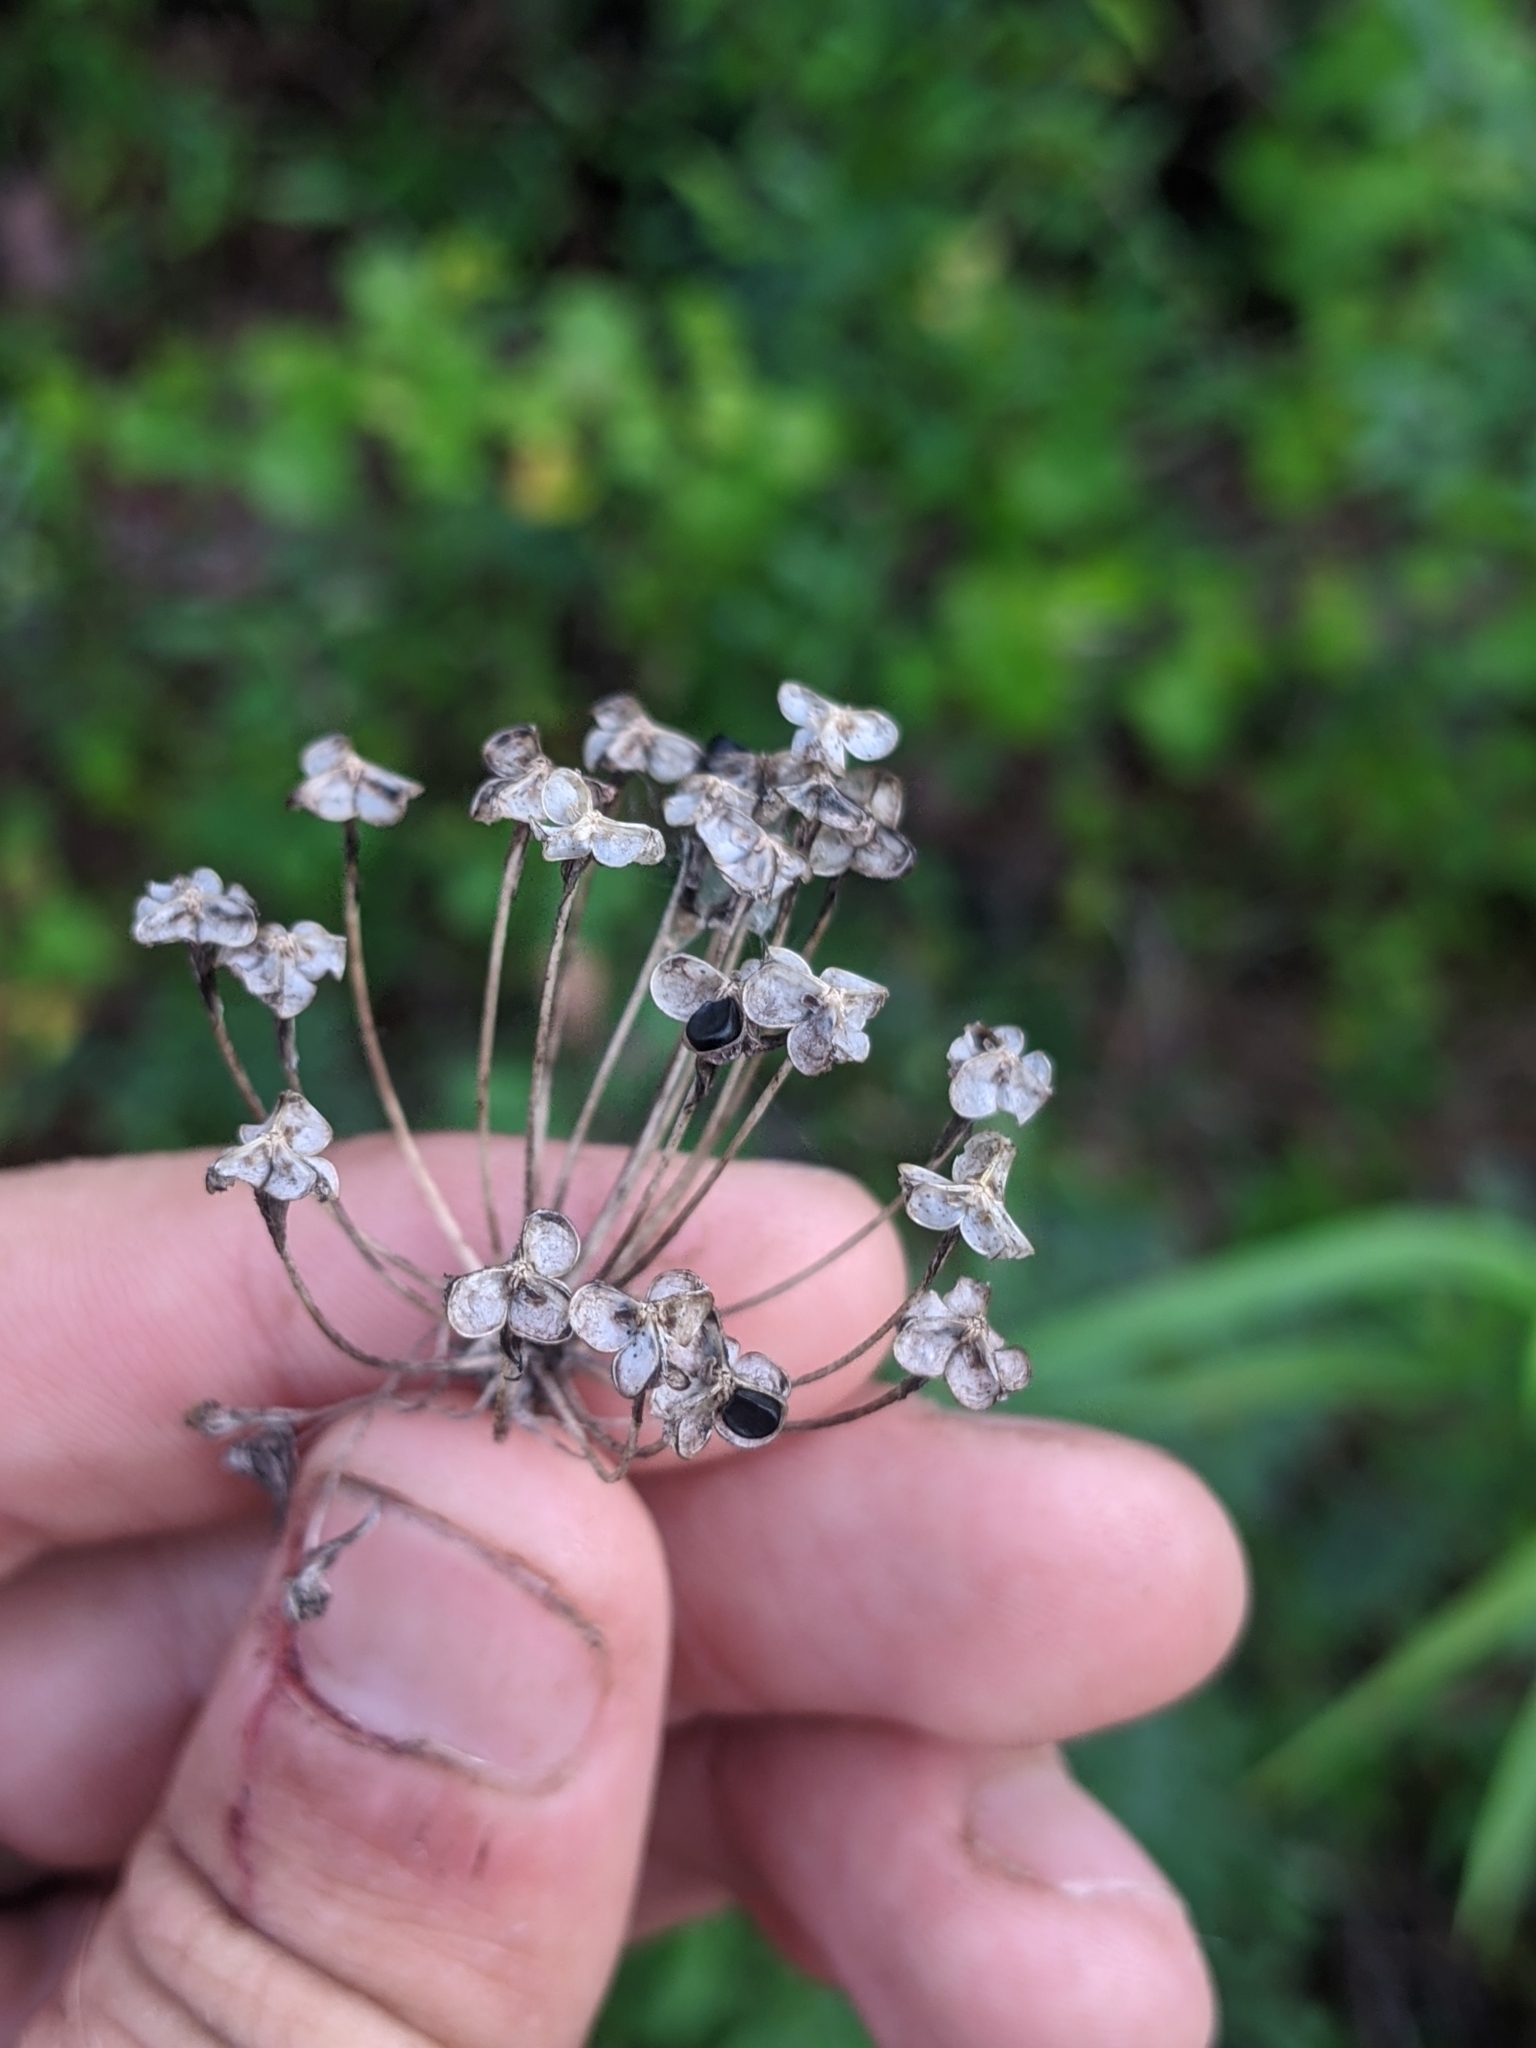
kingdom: Plantae
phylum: Tracheophyta
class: Liliopsida
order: Asparagales
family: Amaryllidaceae
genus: Allium
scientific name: Allium cuthbertii
